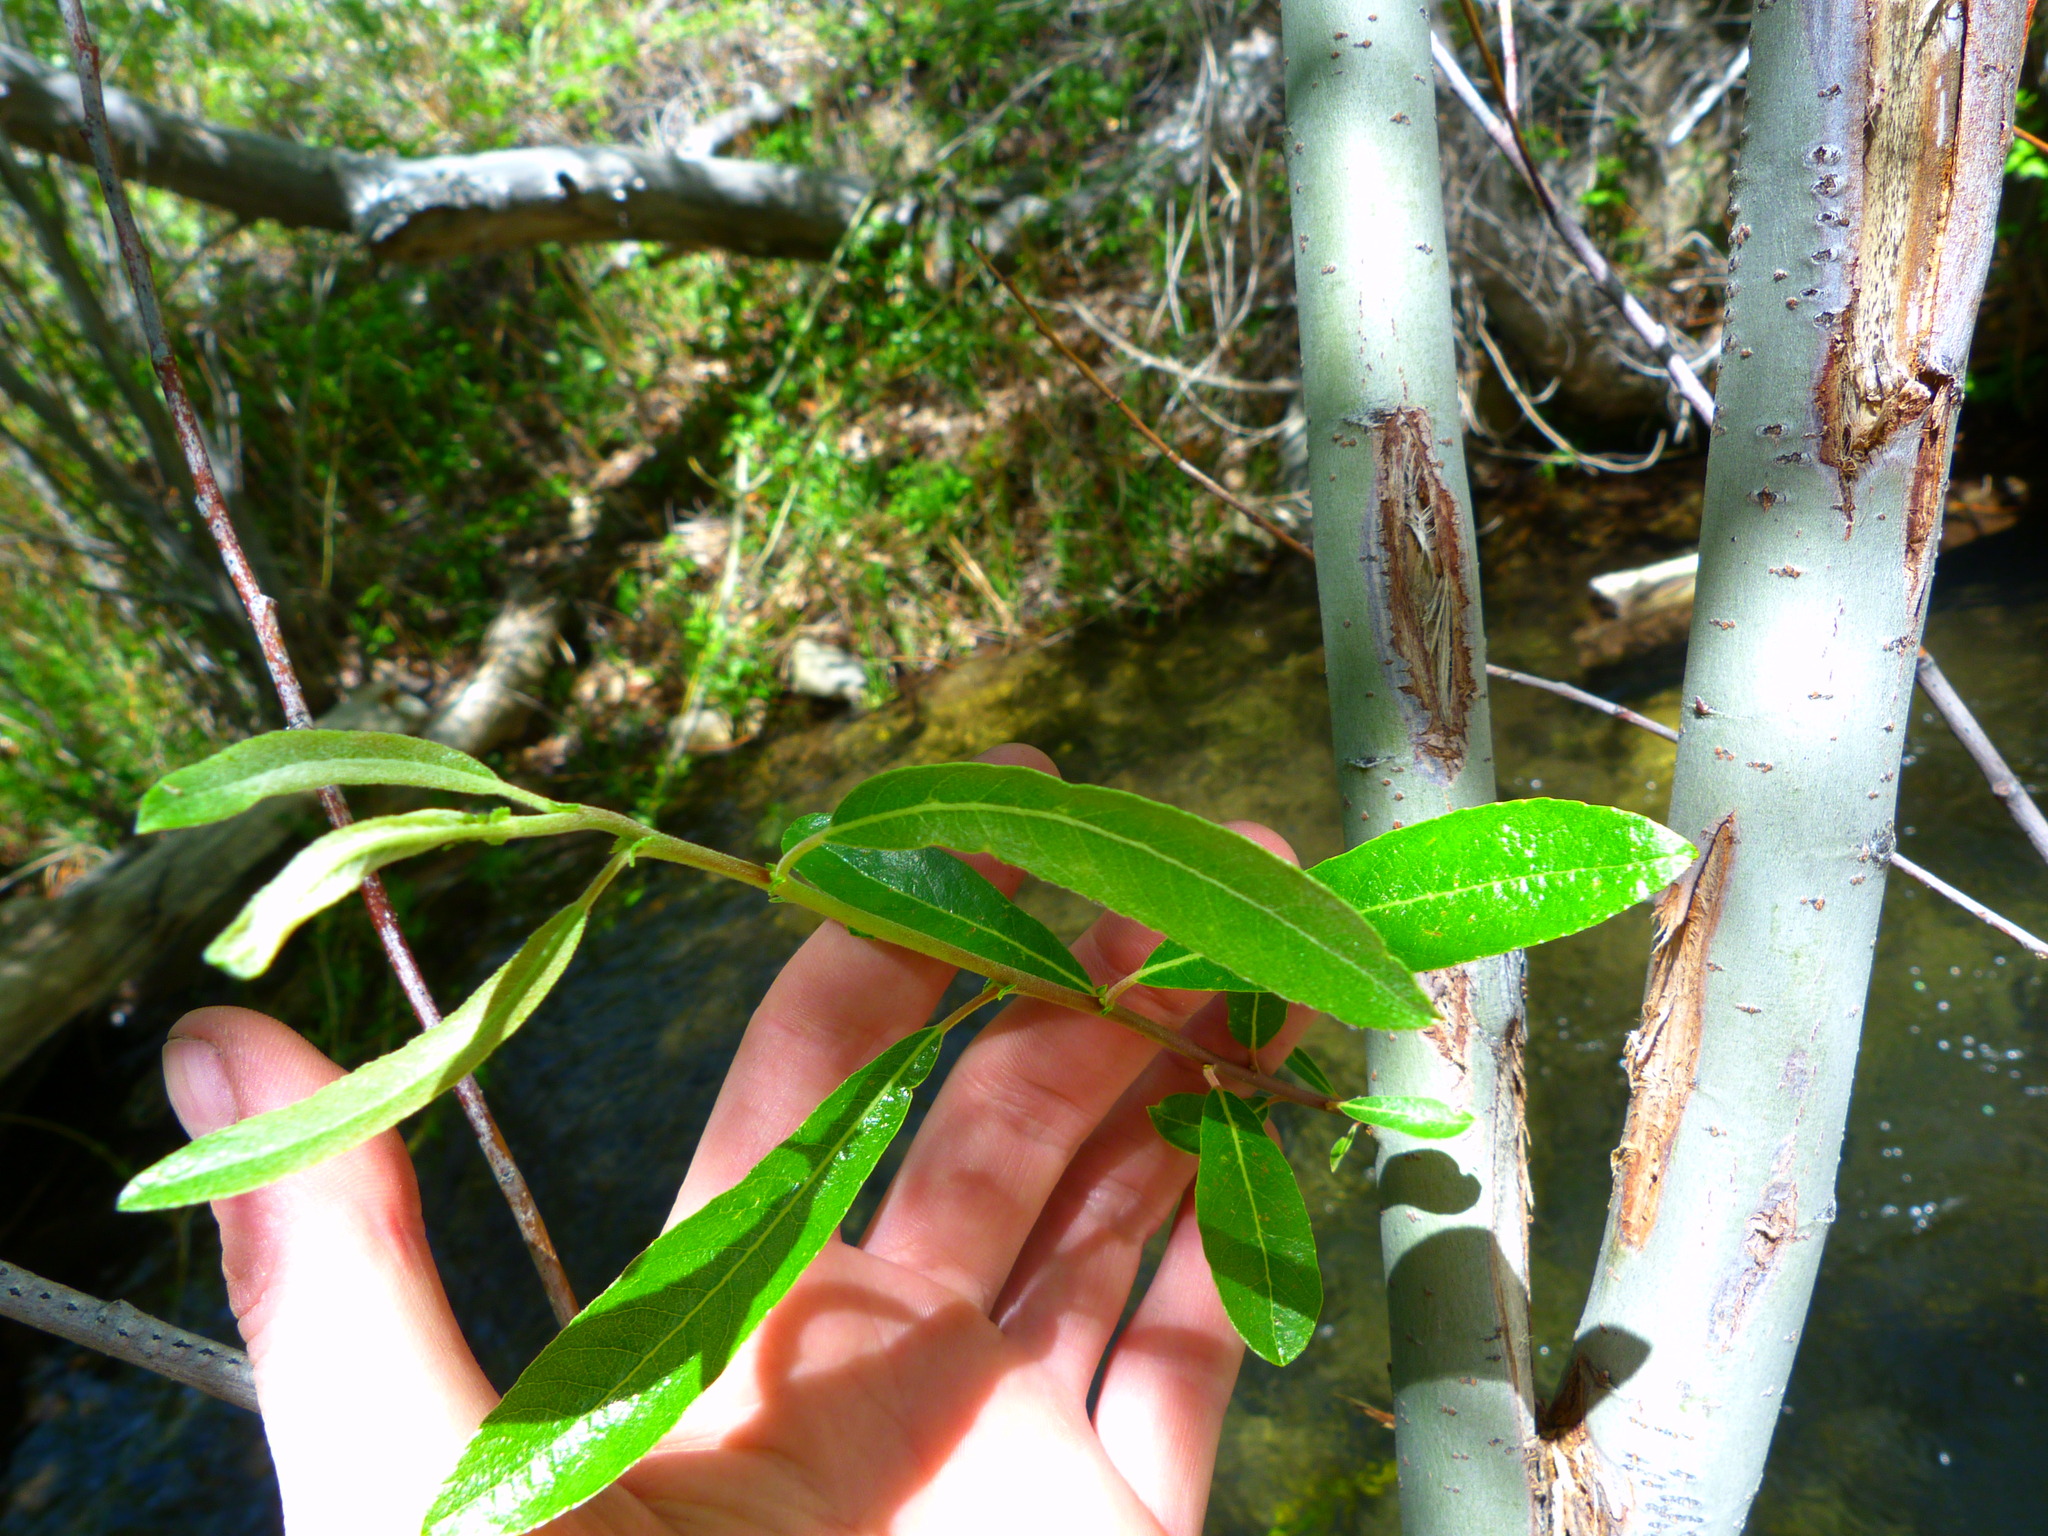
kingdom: Plantae
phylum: Tracheophyta
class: Magnoliopsida
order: Malpighiales
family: Salicaceae
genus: Salix
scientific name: Salix lasiolepis
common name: Arroyo willow
